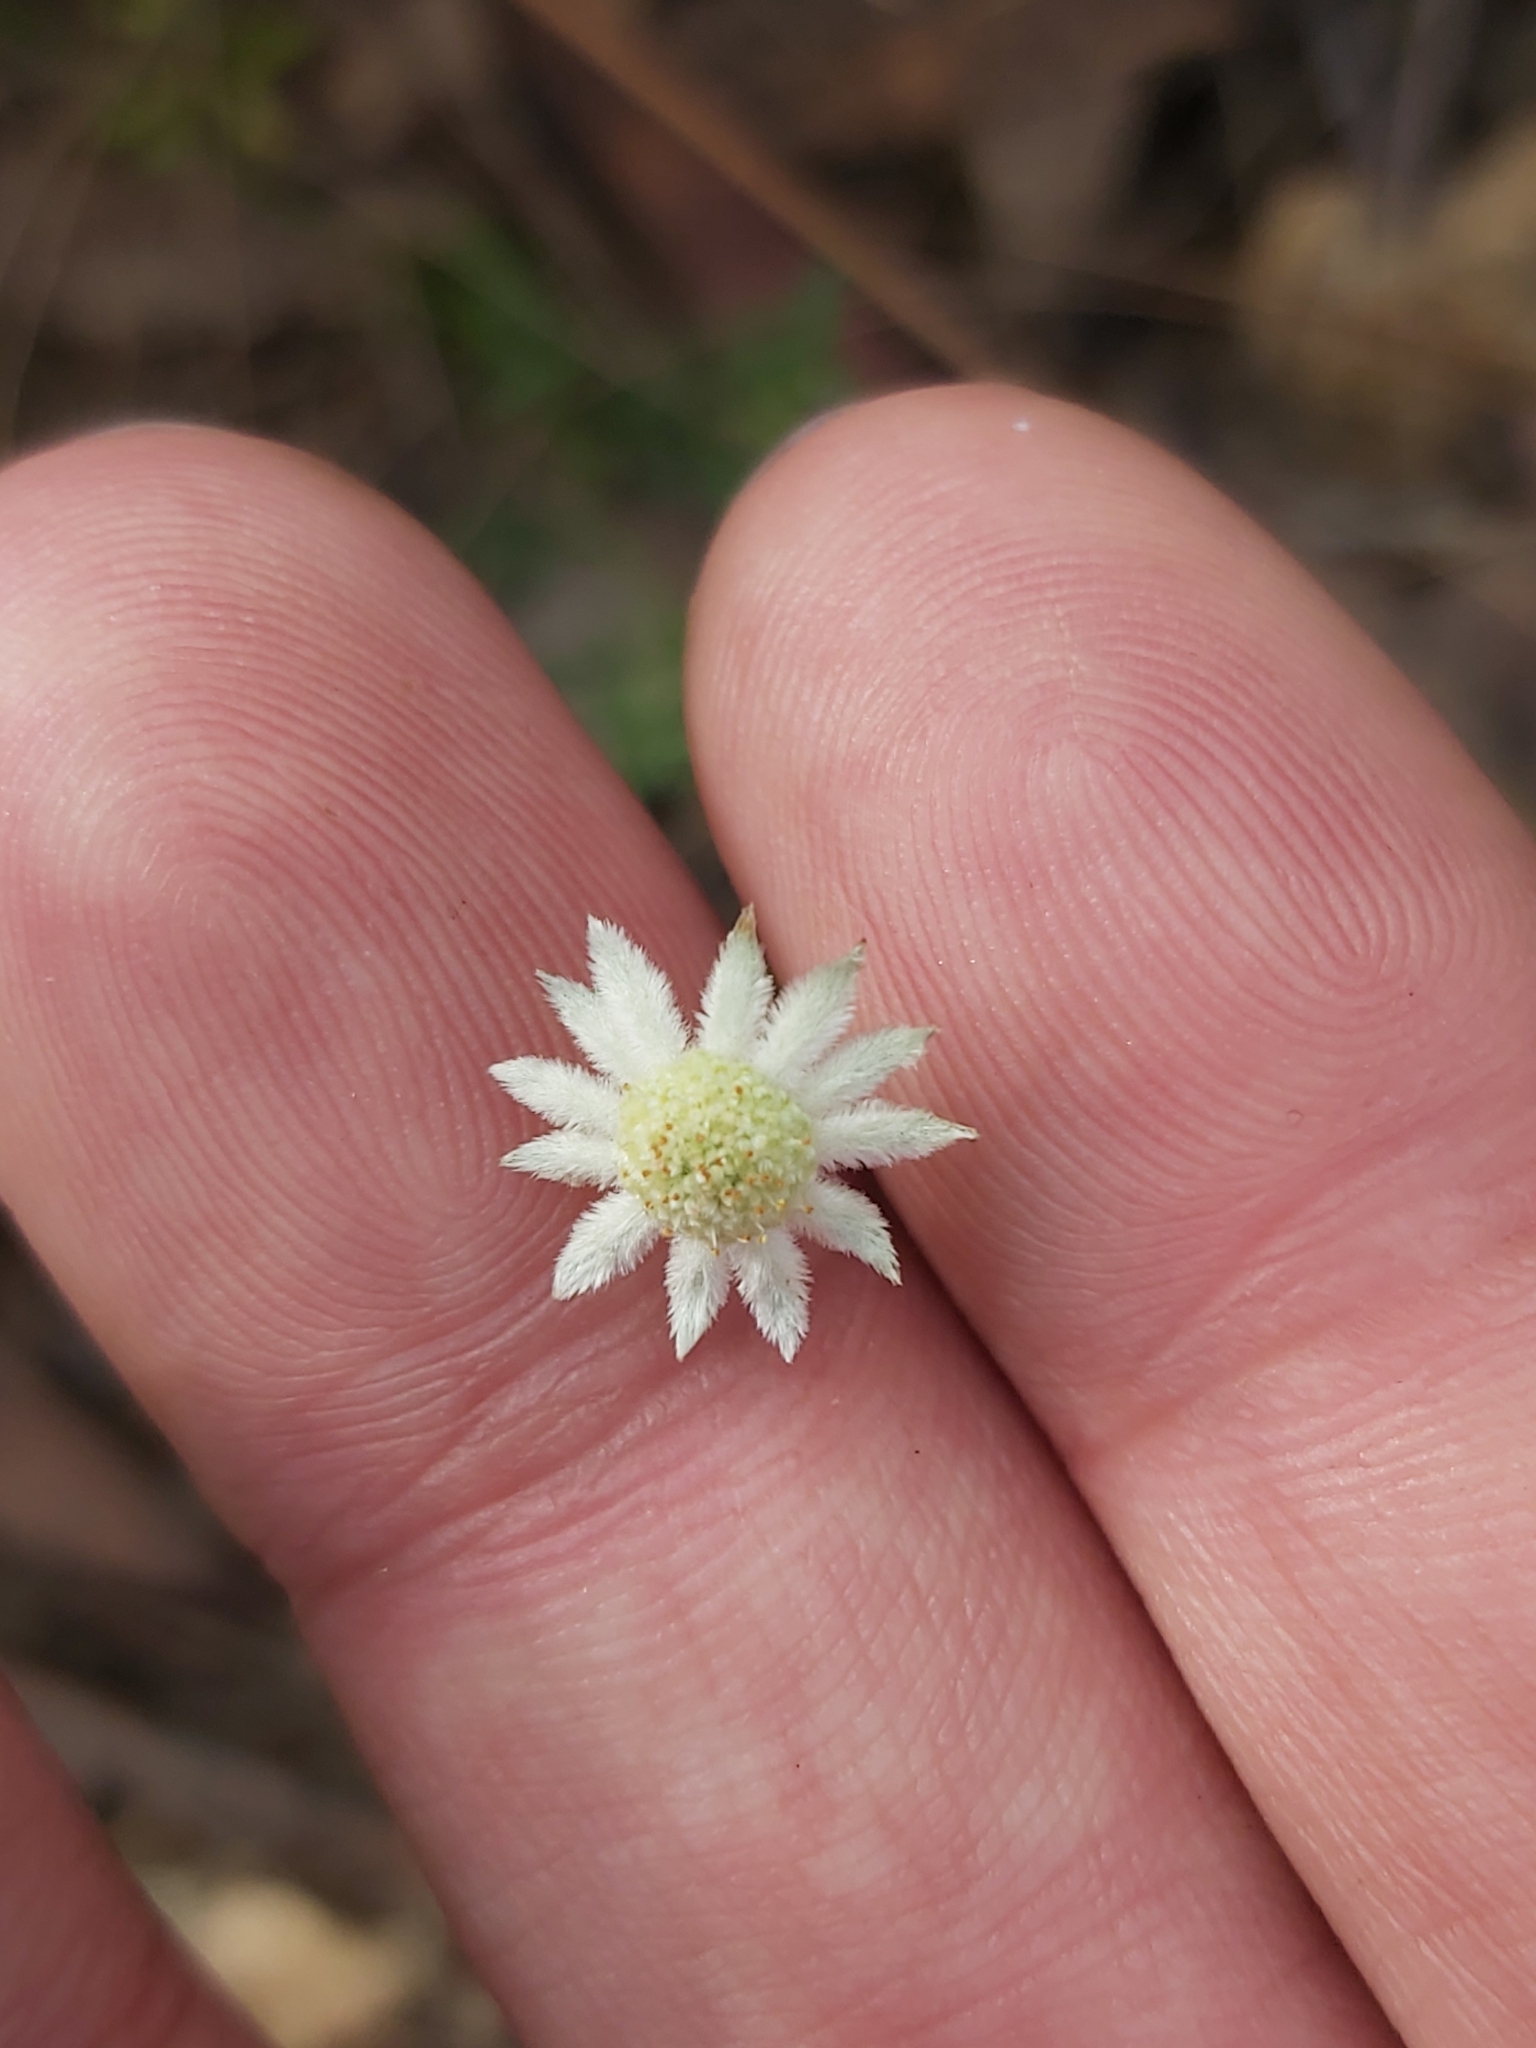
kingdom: Plantae
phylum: Tracheophyta
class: Magnoliopsida
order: Apiales
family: Apiaceae
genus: Actinotus
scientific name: Actinotus minor
